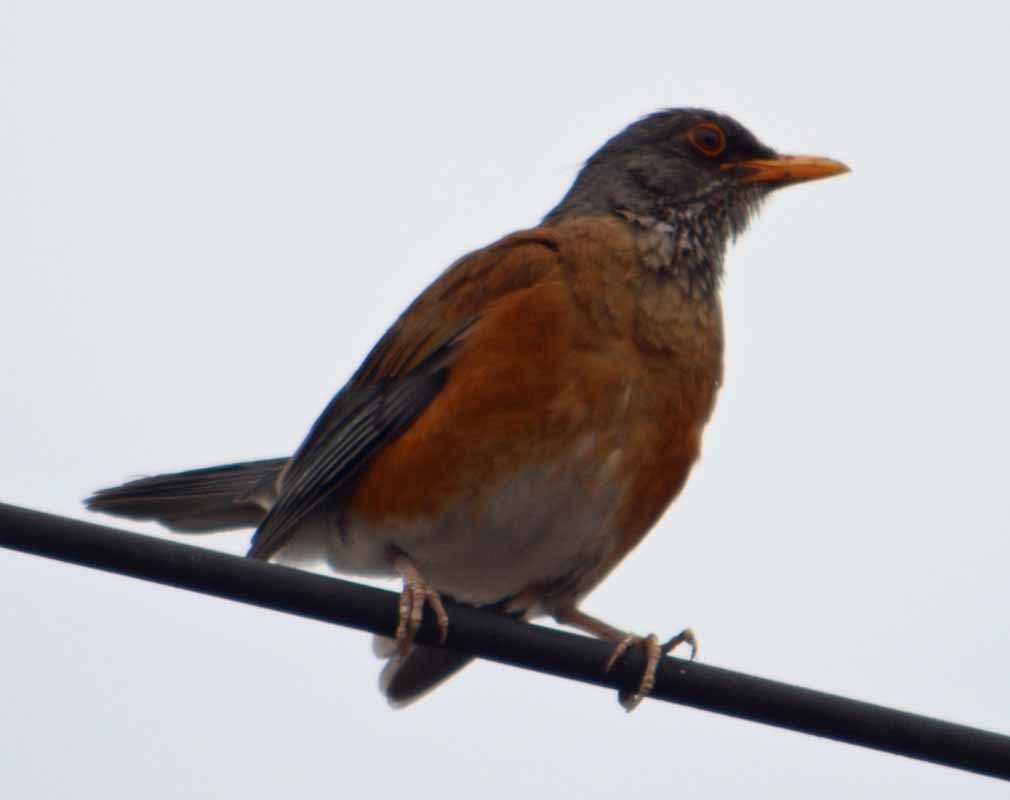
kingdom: Animalia
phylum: Chordata
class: Aves
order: Passeriformes
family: Turdidae
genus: Turdus
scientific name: Turdus rufopalliatus
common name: Rufous-backed robin
